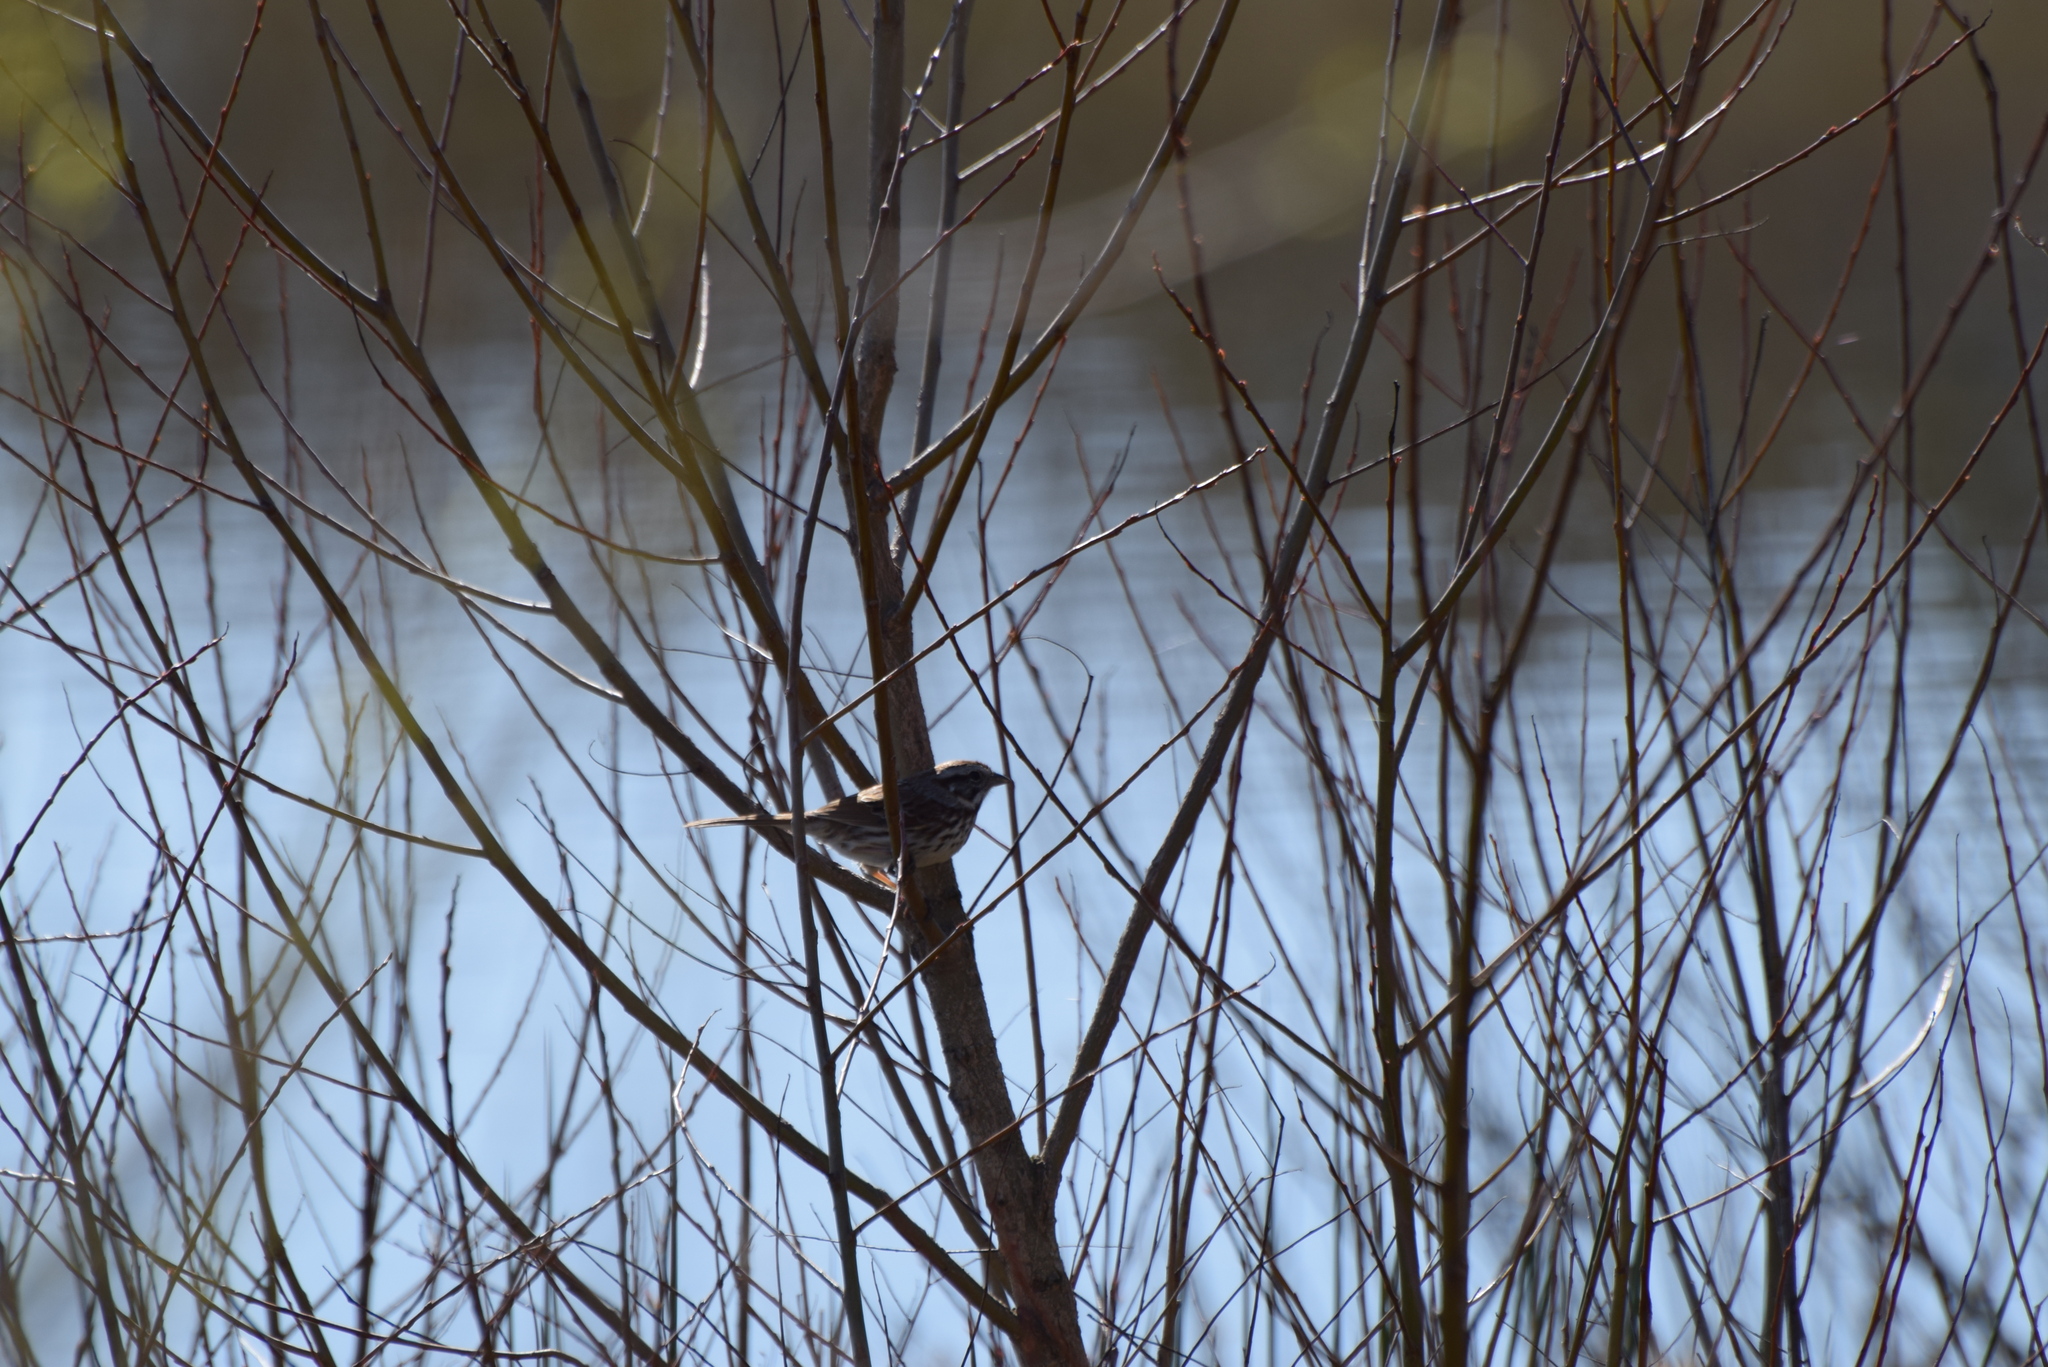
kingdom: Animalia
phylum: Chordata
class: Aves
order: Passeriformes
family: Passerellidae
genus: Melospiza
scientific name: Melospiza melodia
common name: Song sparrow
